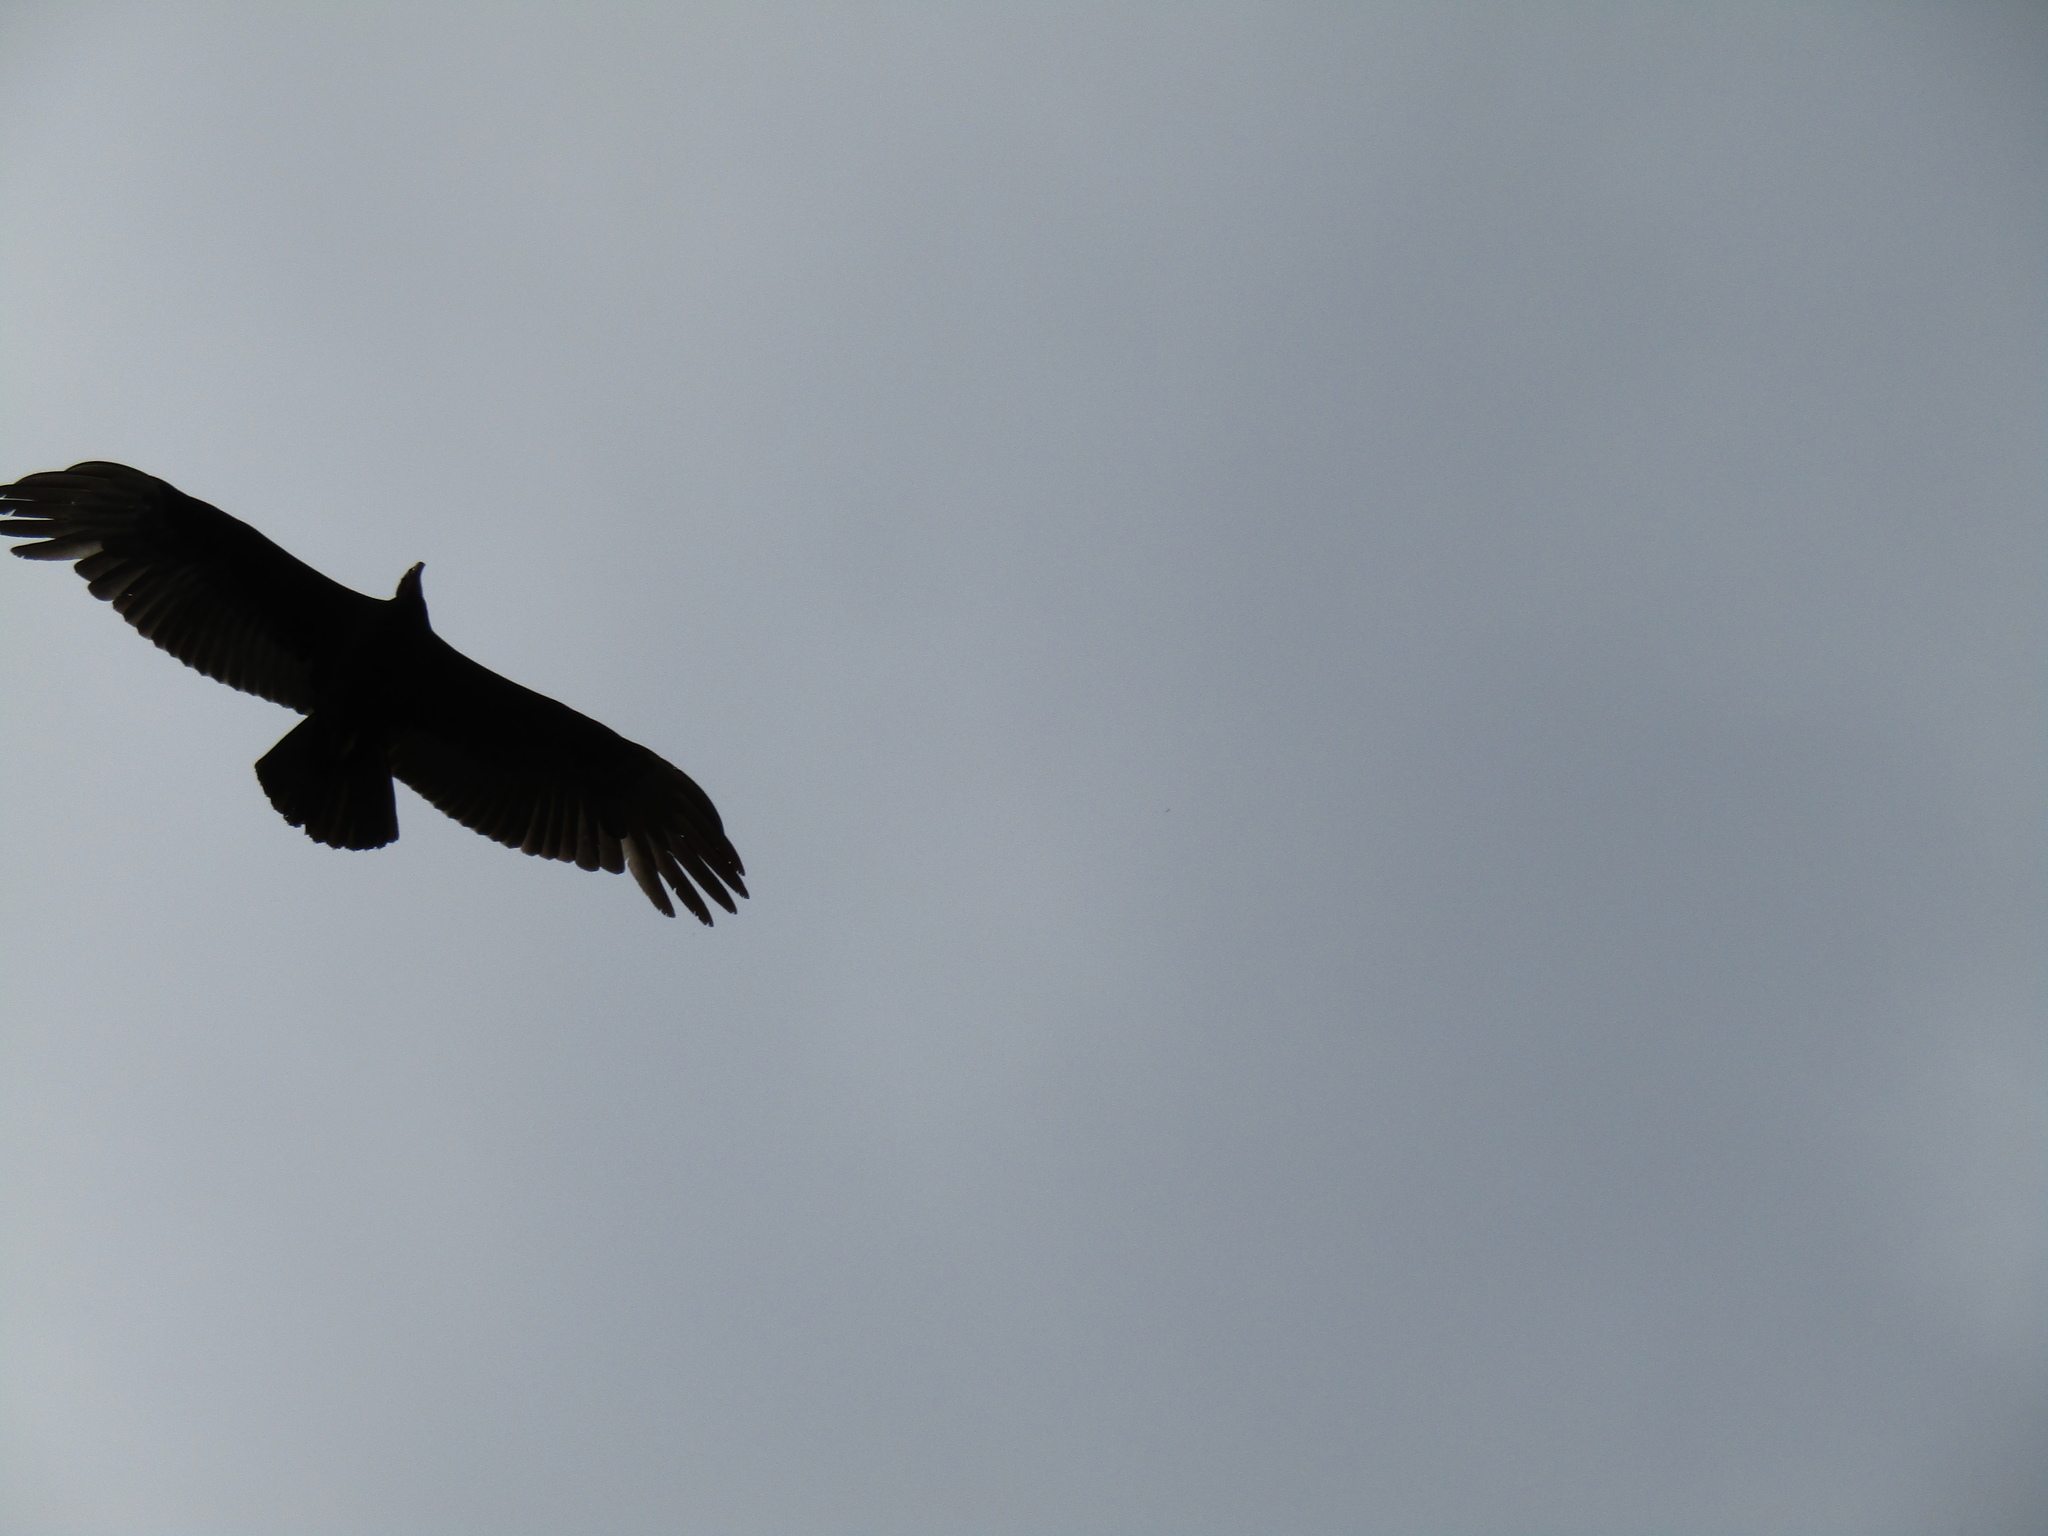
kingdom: Animalia
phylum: Chordata
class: Aves
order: Accipitriformes
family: Cathartidae
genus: Cathartes
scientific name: Cathartes aura
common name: Turkey vulture
